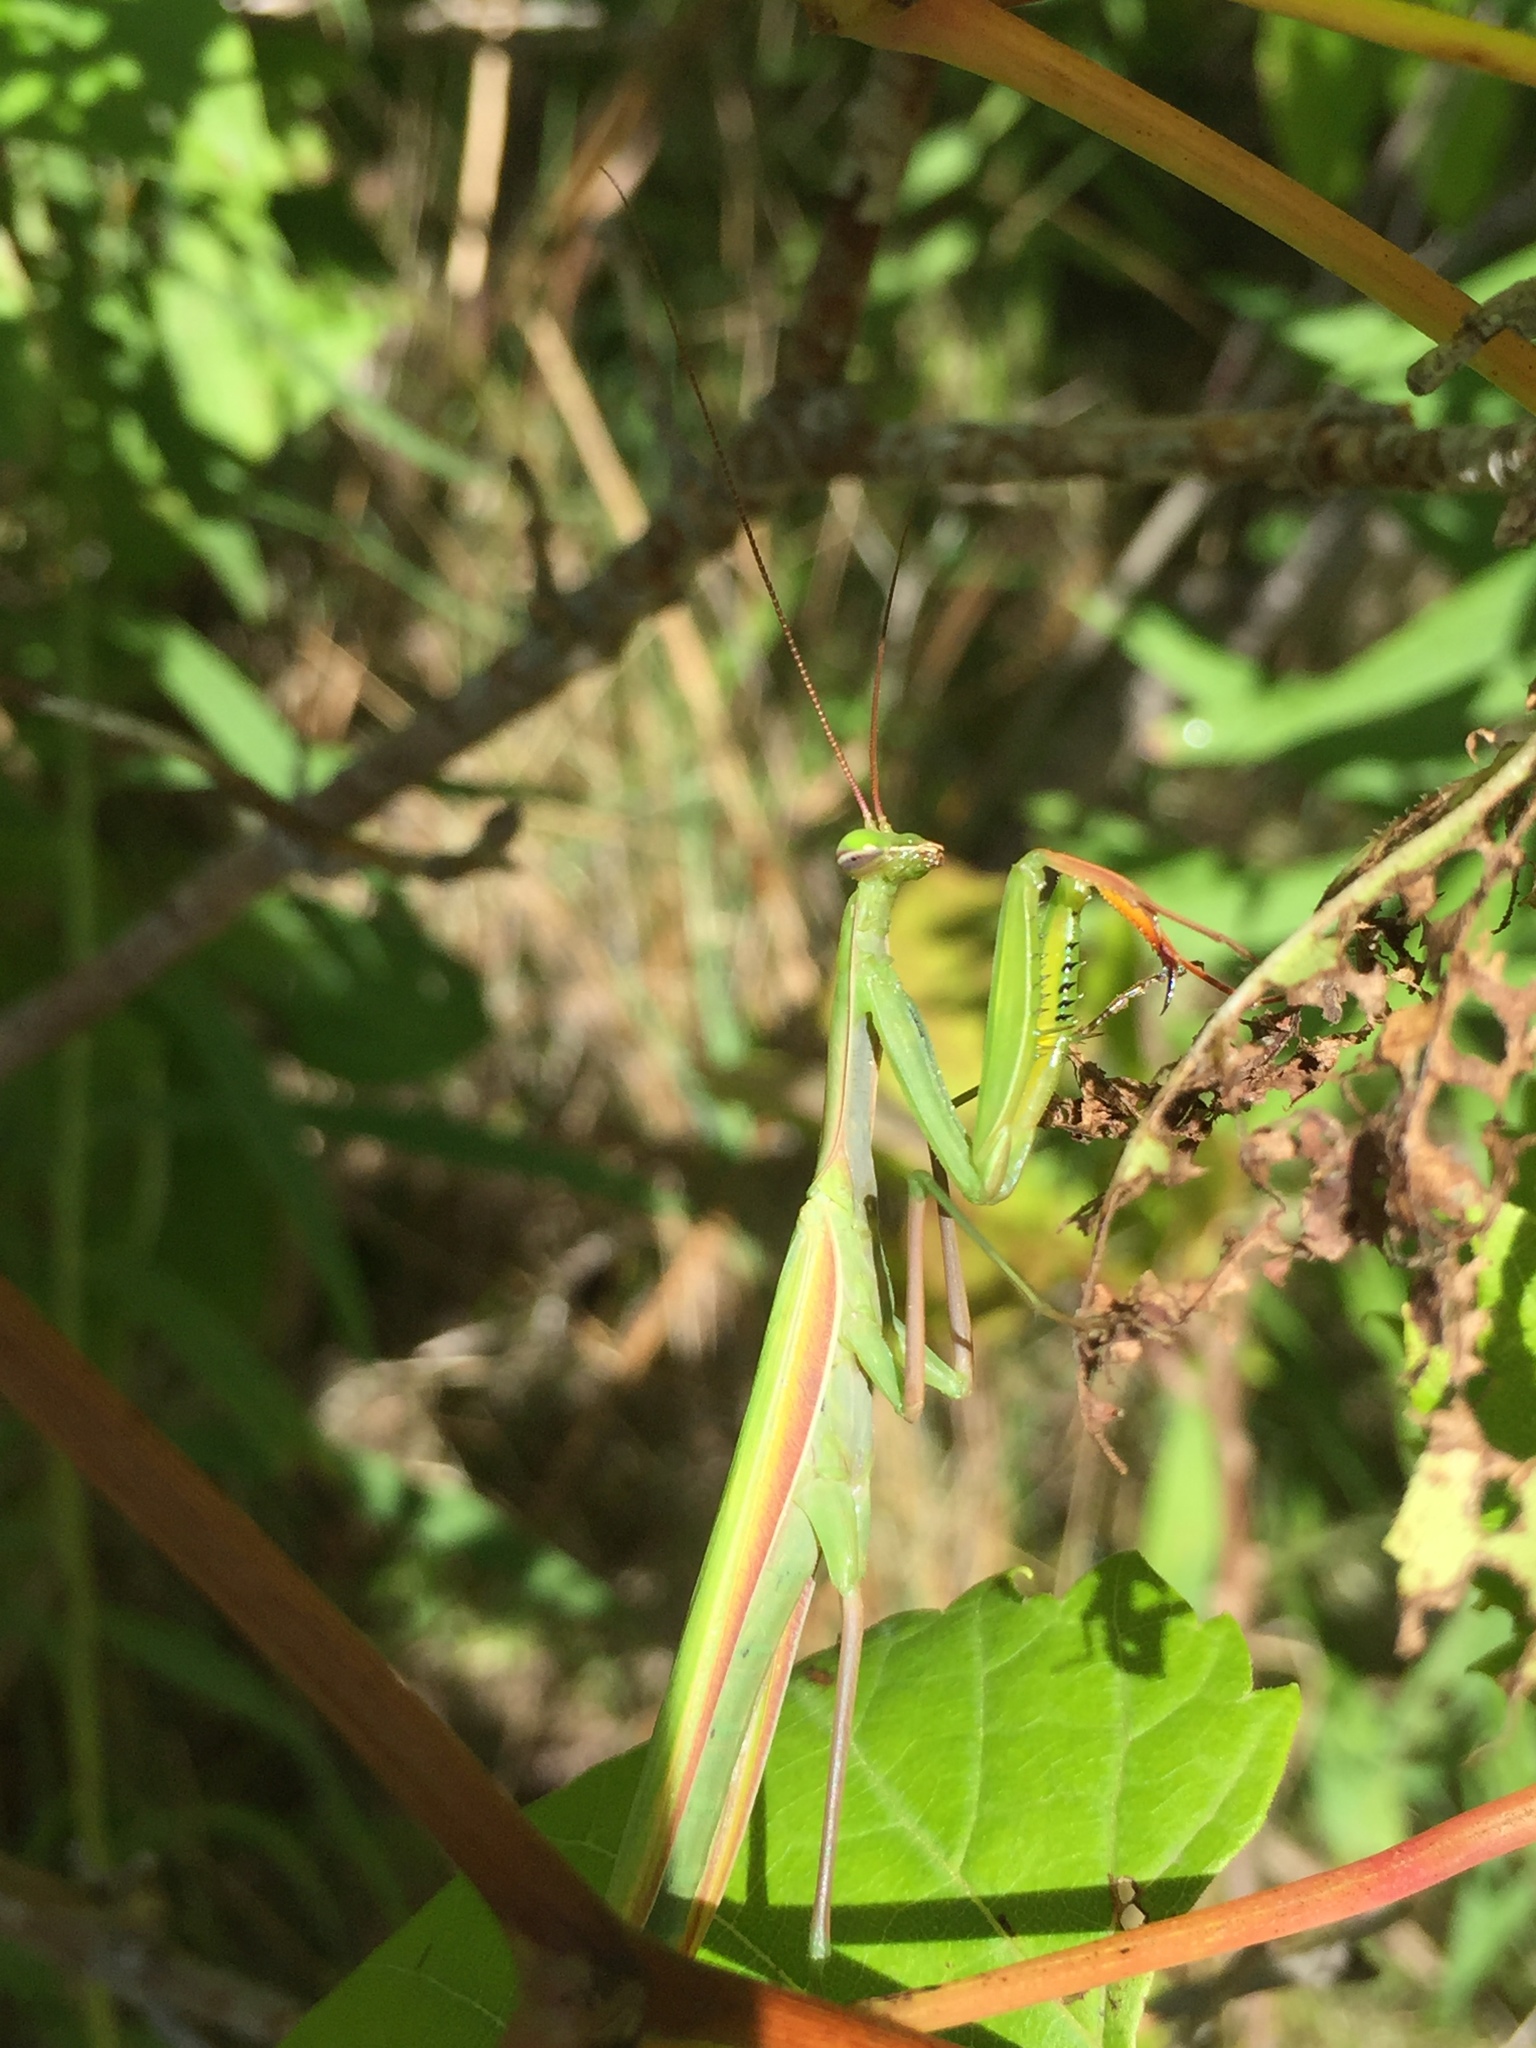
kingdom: Animalia
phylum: Arthropoda
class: Insecta
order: Mantodea
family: Mantidae
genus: Mantis
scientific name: Mantis religiosa
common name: Praying mantis
